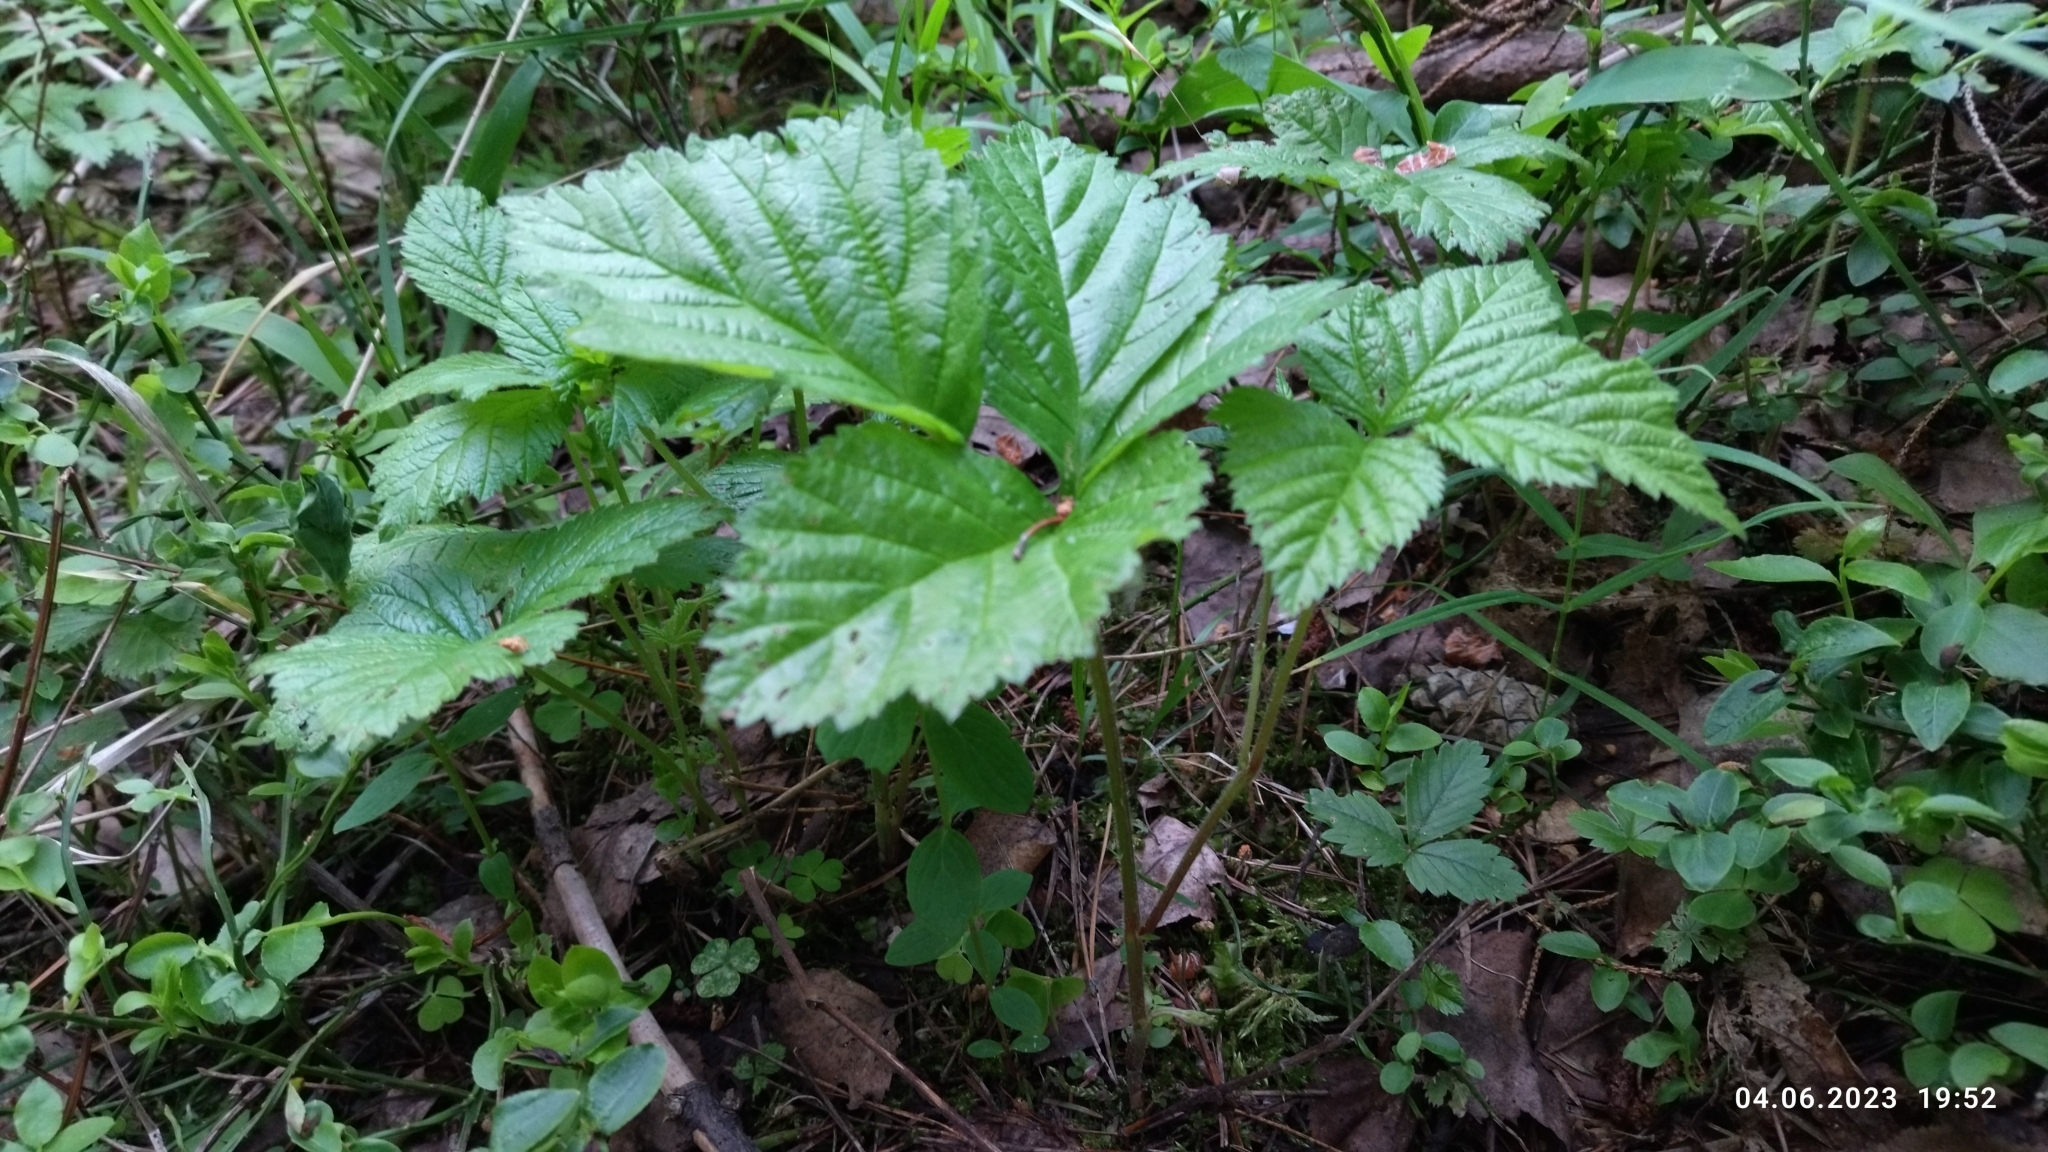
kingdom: Plantae
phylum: Tracheophyta
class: Magnoliopsida
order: Rosales
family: Rosaceae
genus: Rubus
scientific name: Rubus saxatilis
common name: Stone bramble
